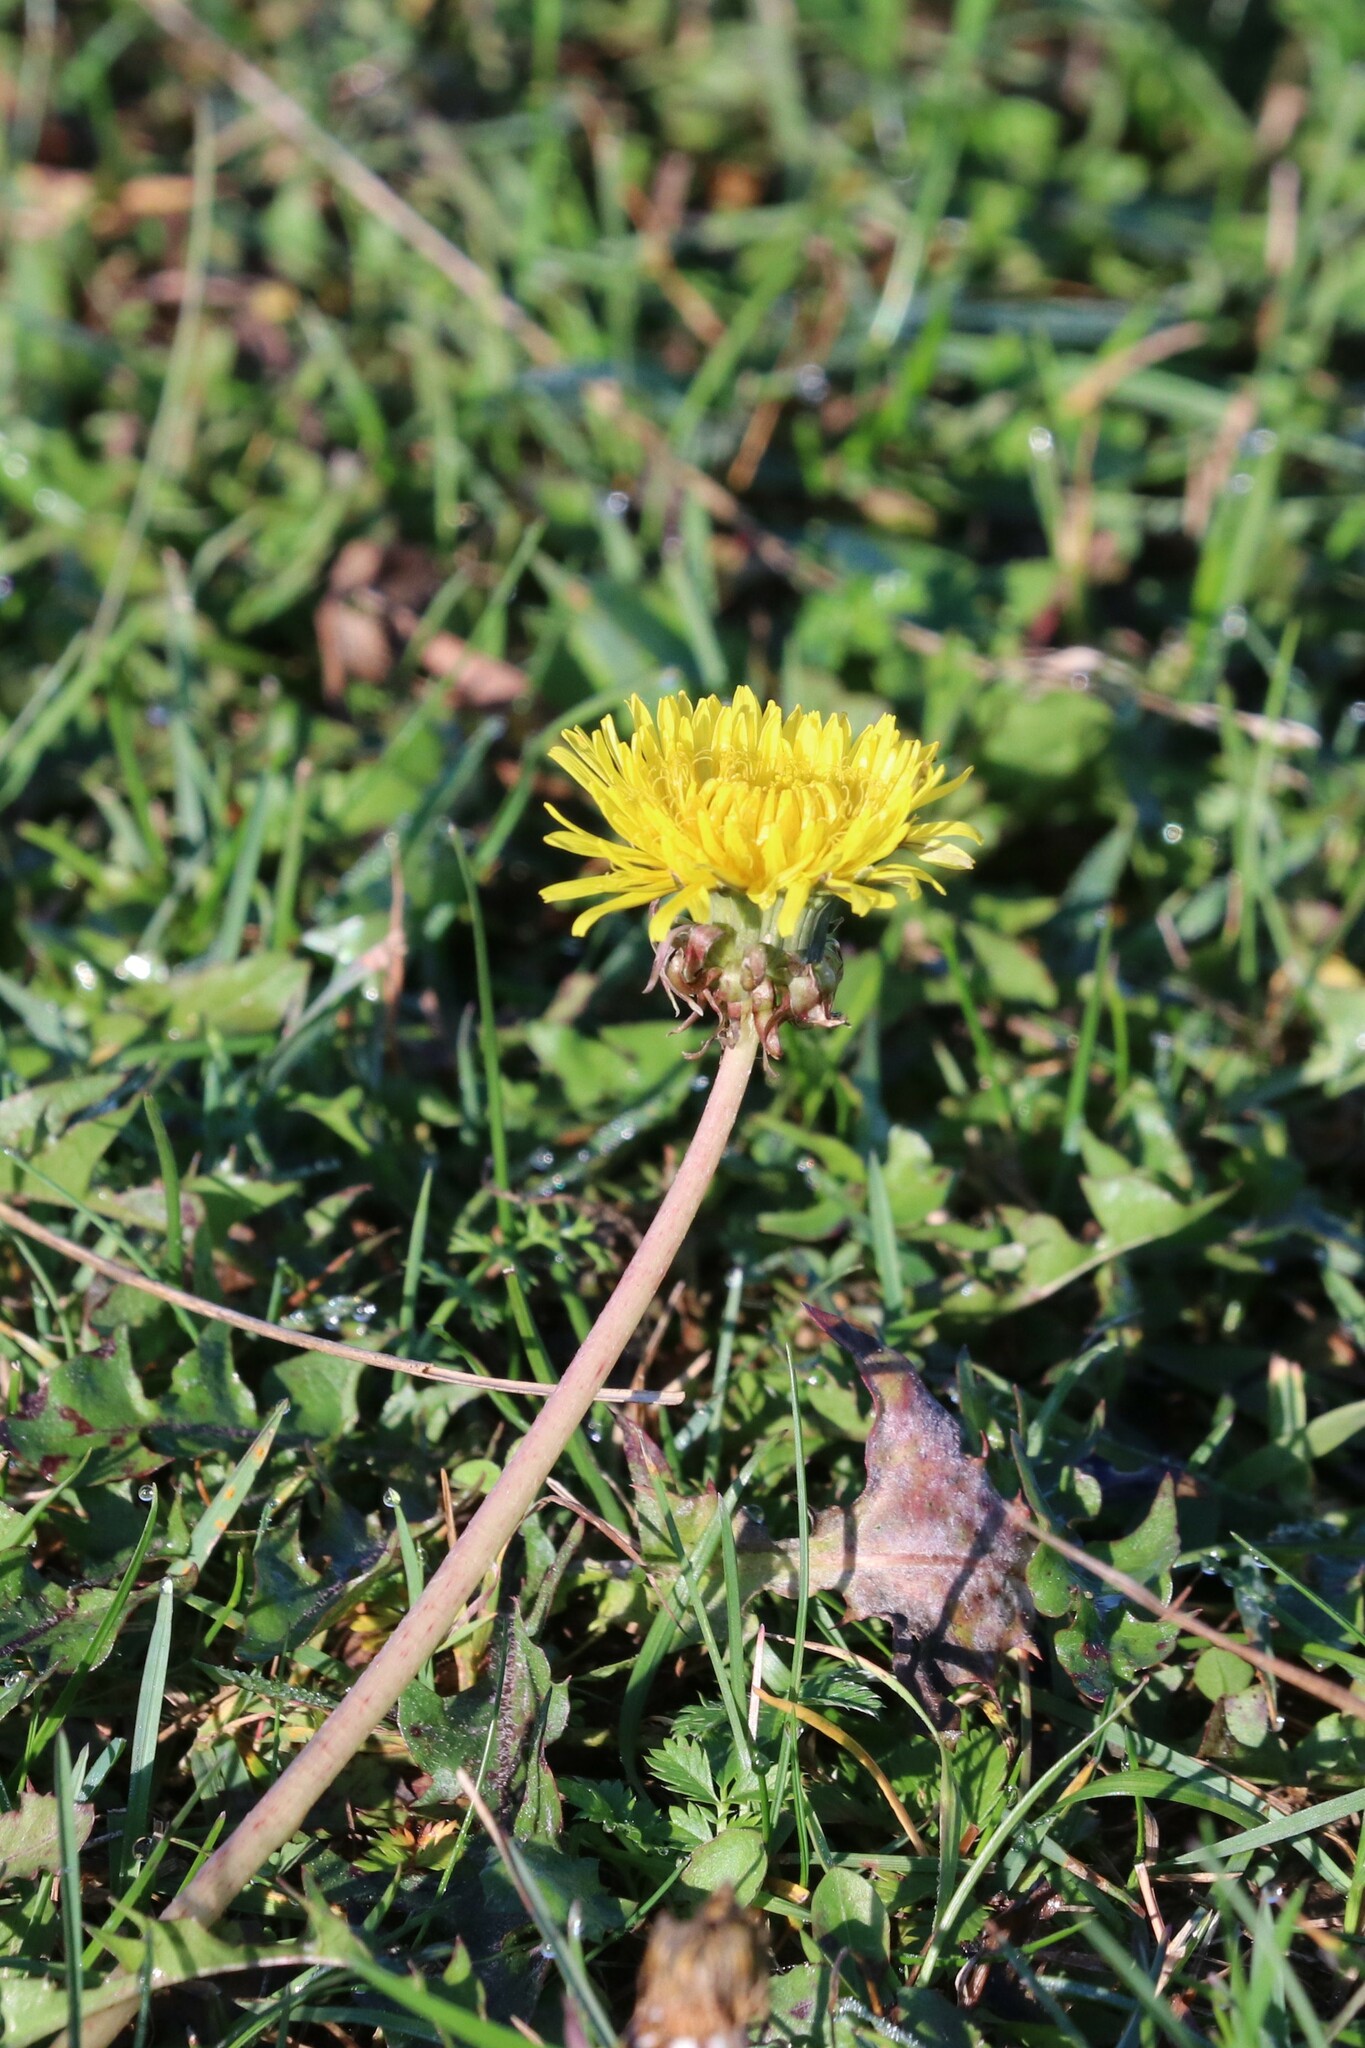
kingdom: Plantae
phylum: Tracheophyta
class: Magnoliopsida
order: Asterales
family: Asteraceae
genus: Taraxacum
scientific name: Taraxacum officinale
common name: Common dandelion
